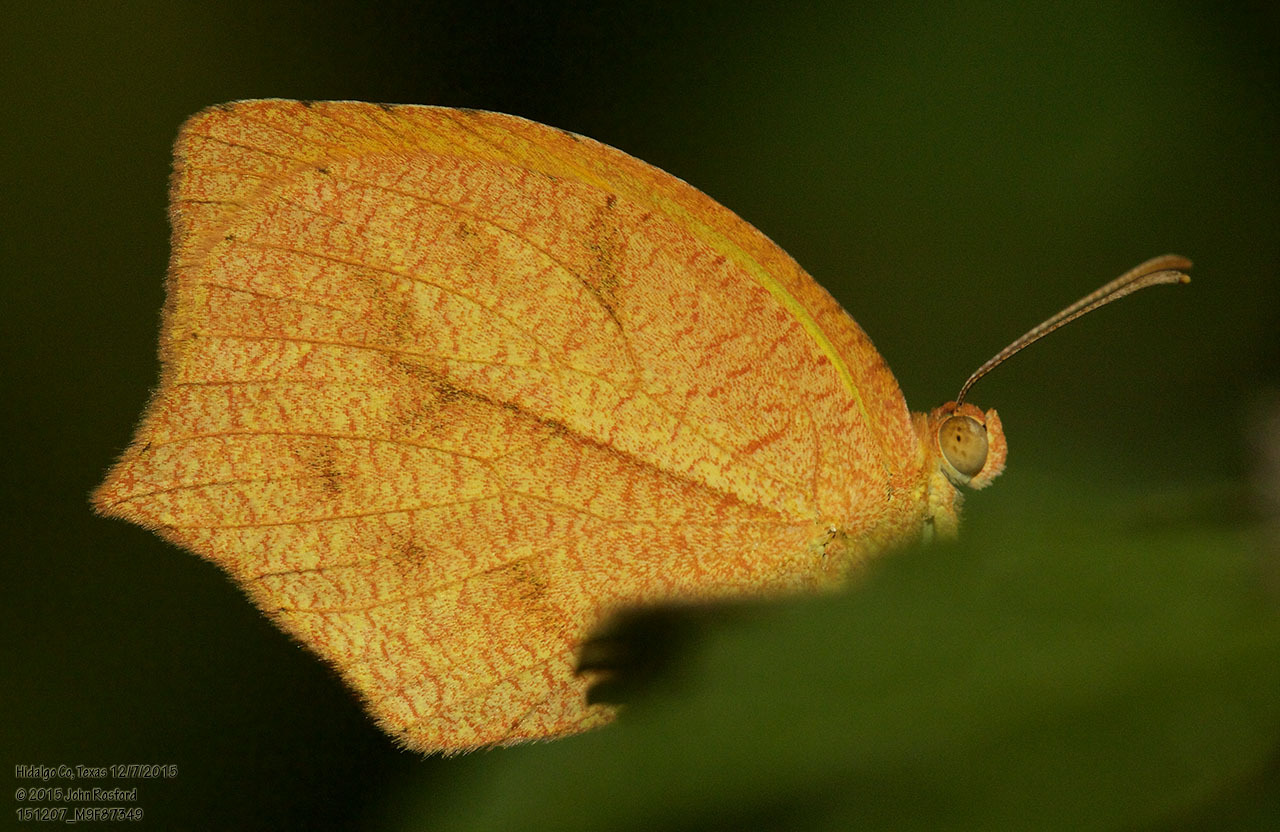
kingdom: Animalia
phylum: Arthropoda
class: Insecta
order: Lepidoptera
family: Pieridae
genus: Pyrisitia
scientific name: Pyrisitia proterpia
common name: Tailed orange
